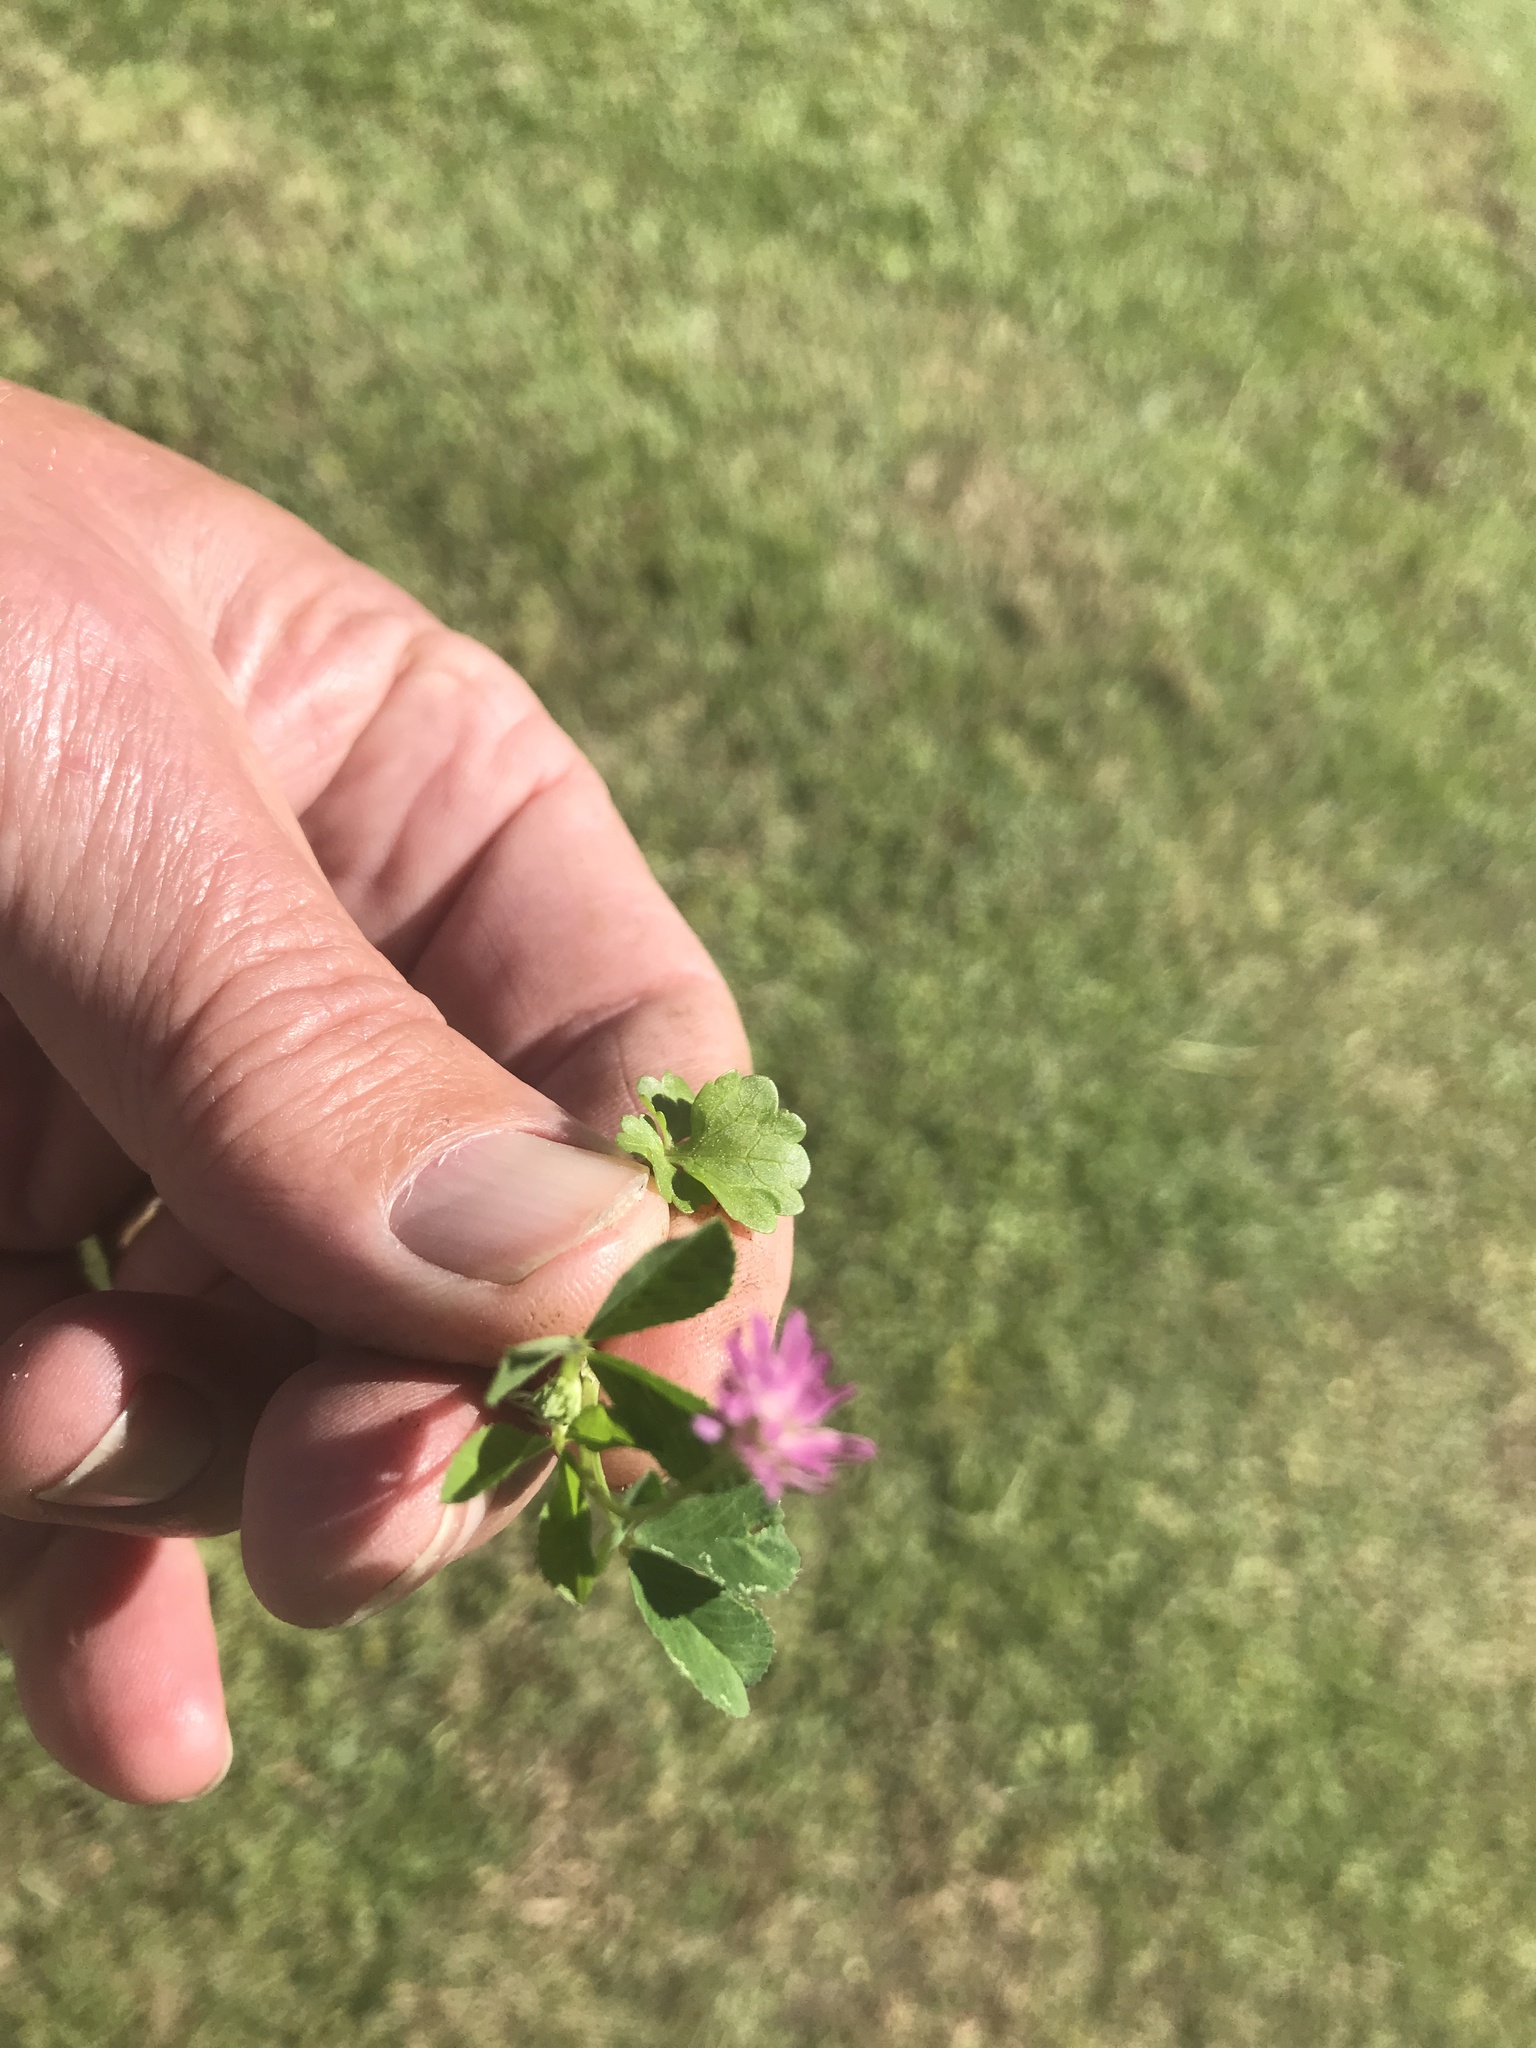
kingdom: Plantae
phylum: Tracheophyta
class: Magnoliopsida
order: Fabales
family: Fabaceae
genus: Trifolium
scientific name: Trifolium resupinatum
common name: Reversed clover
